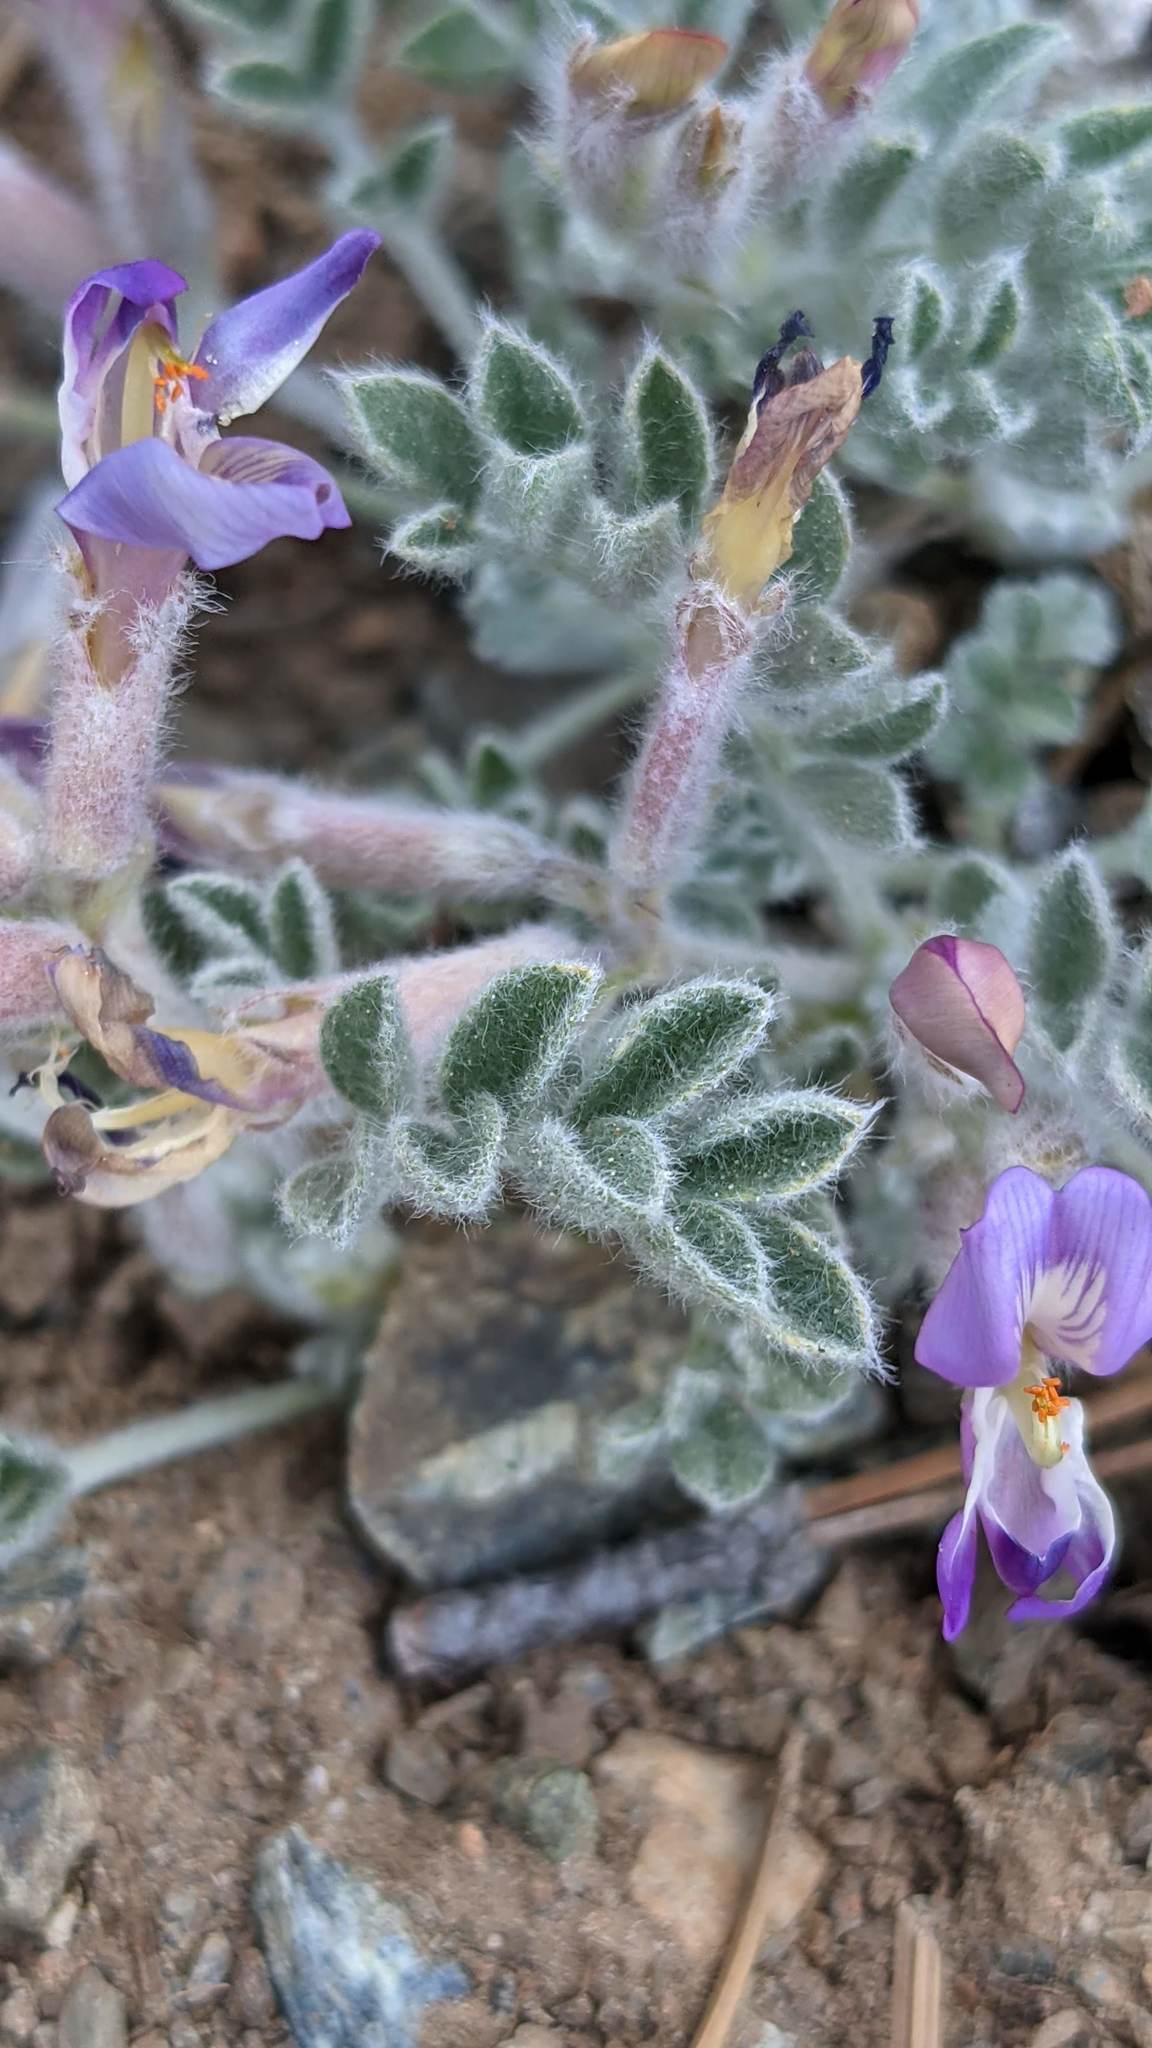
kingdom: Plantae
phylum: Tracheophyta
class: Magnoliopsida
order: Fabales
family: Fabaceae
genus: Astragalus
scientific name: Astragalus purshii
